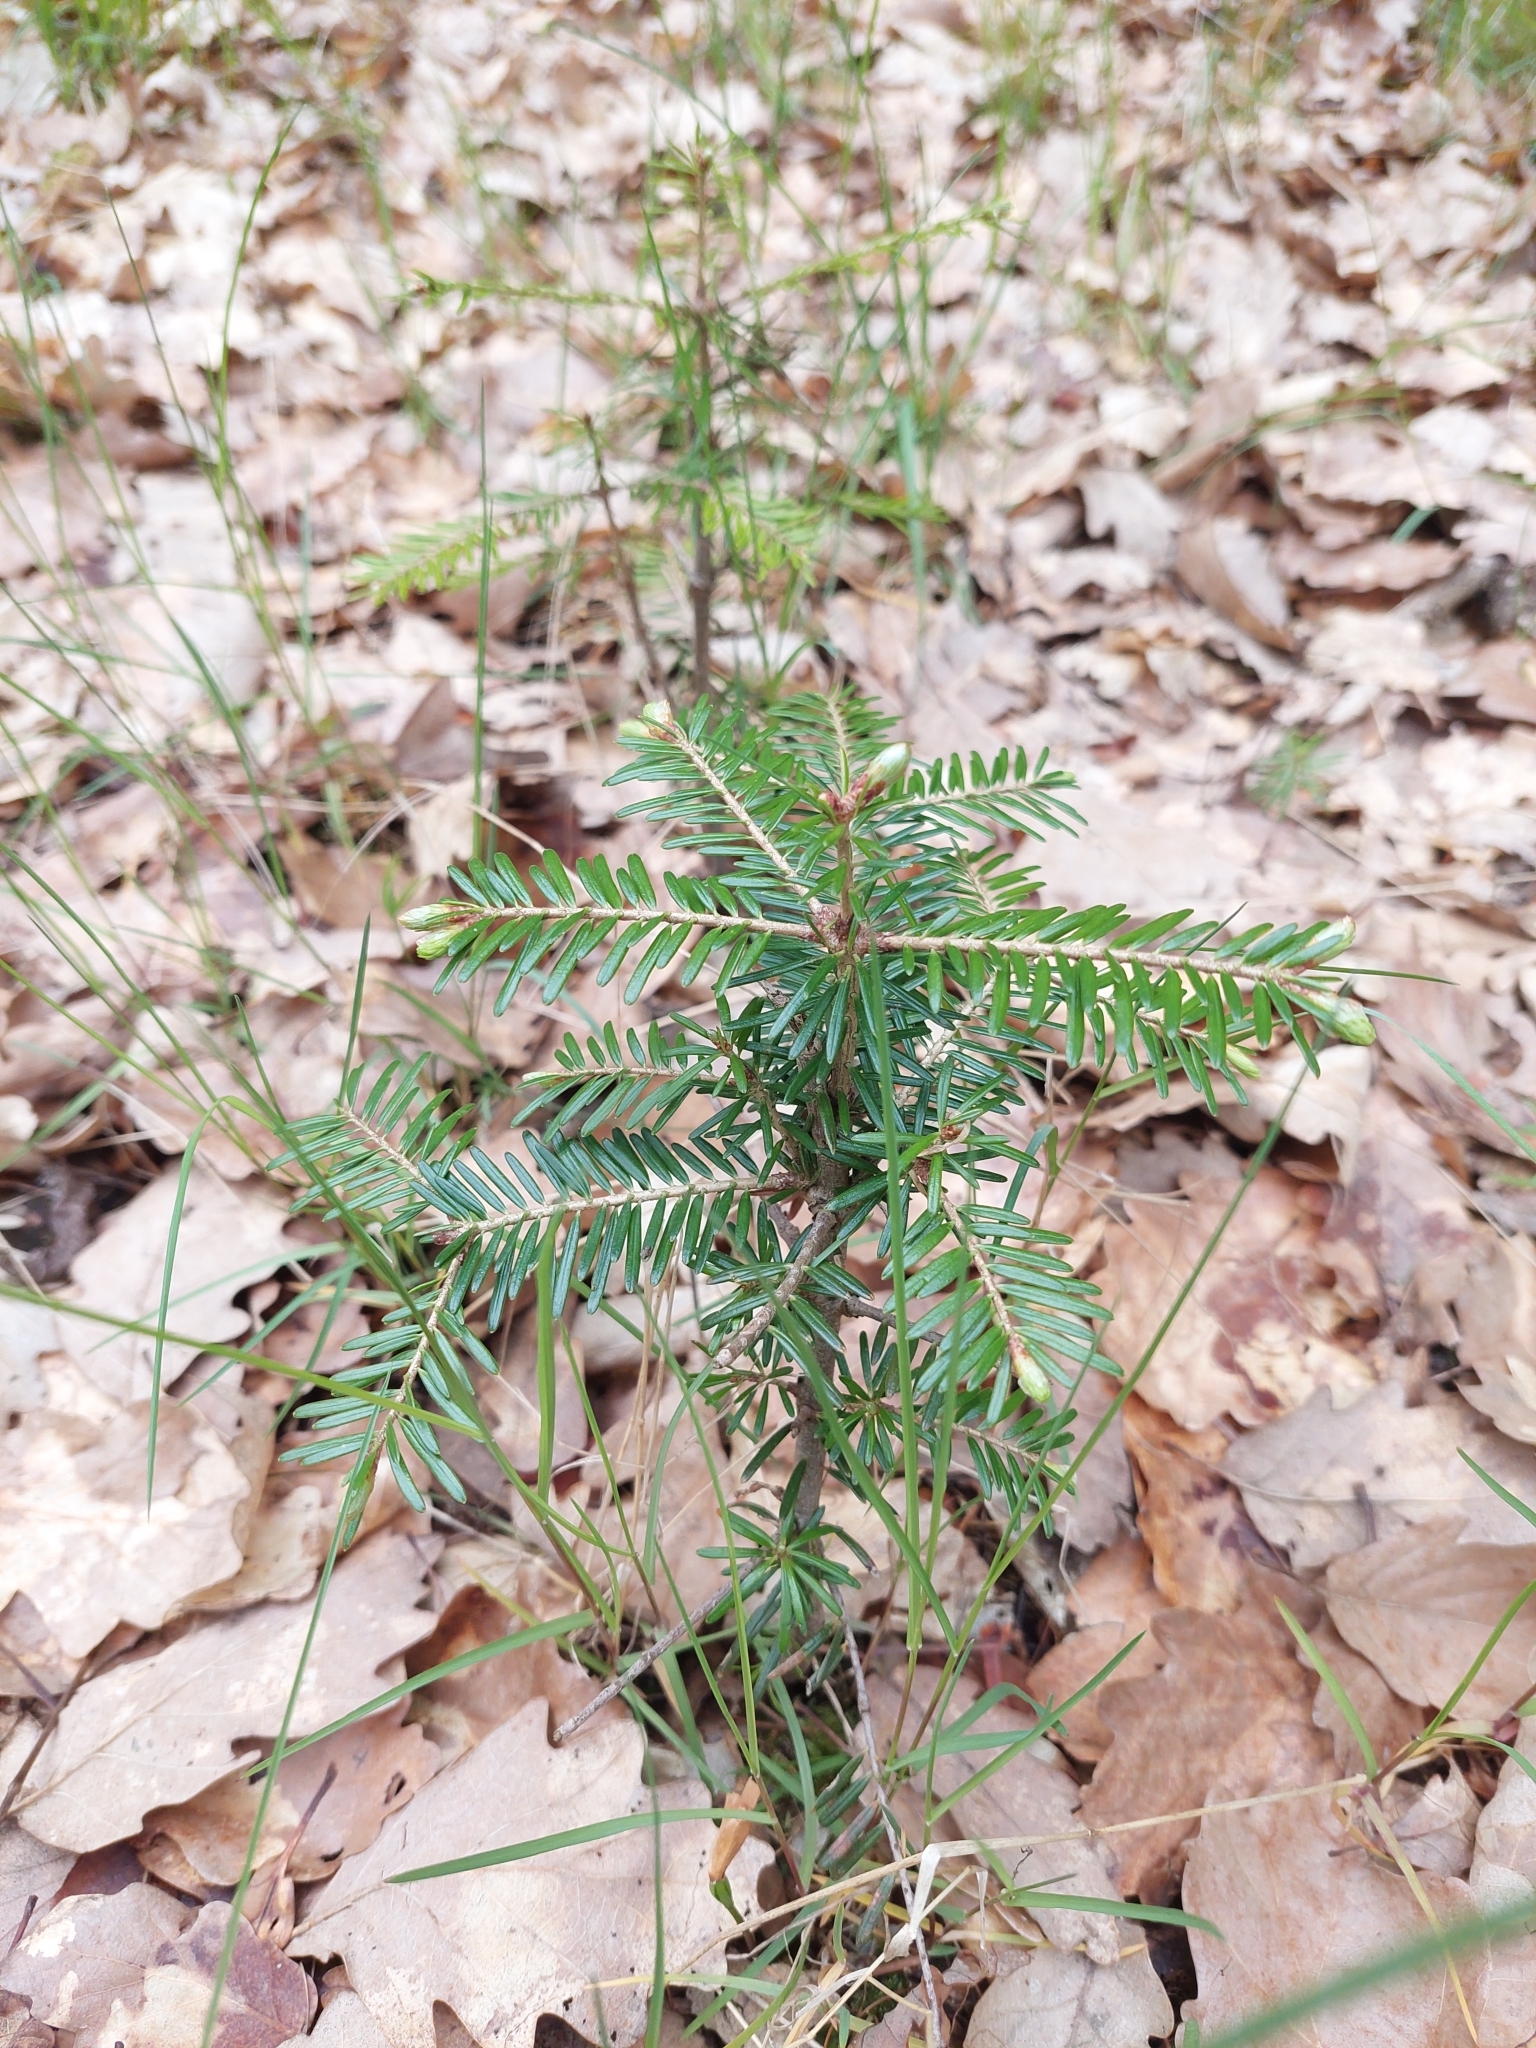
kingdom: Plantae
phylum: Tracheophyta
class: Pinopsida
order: Pinales
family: Pinaceae
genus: Abies
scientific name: Abies alba
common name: Silver fir
